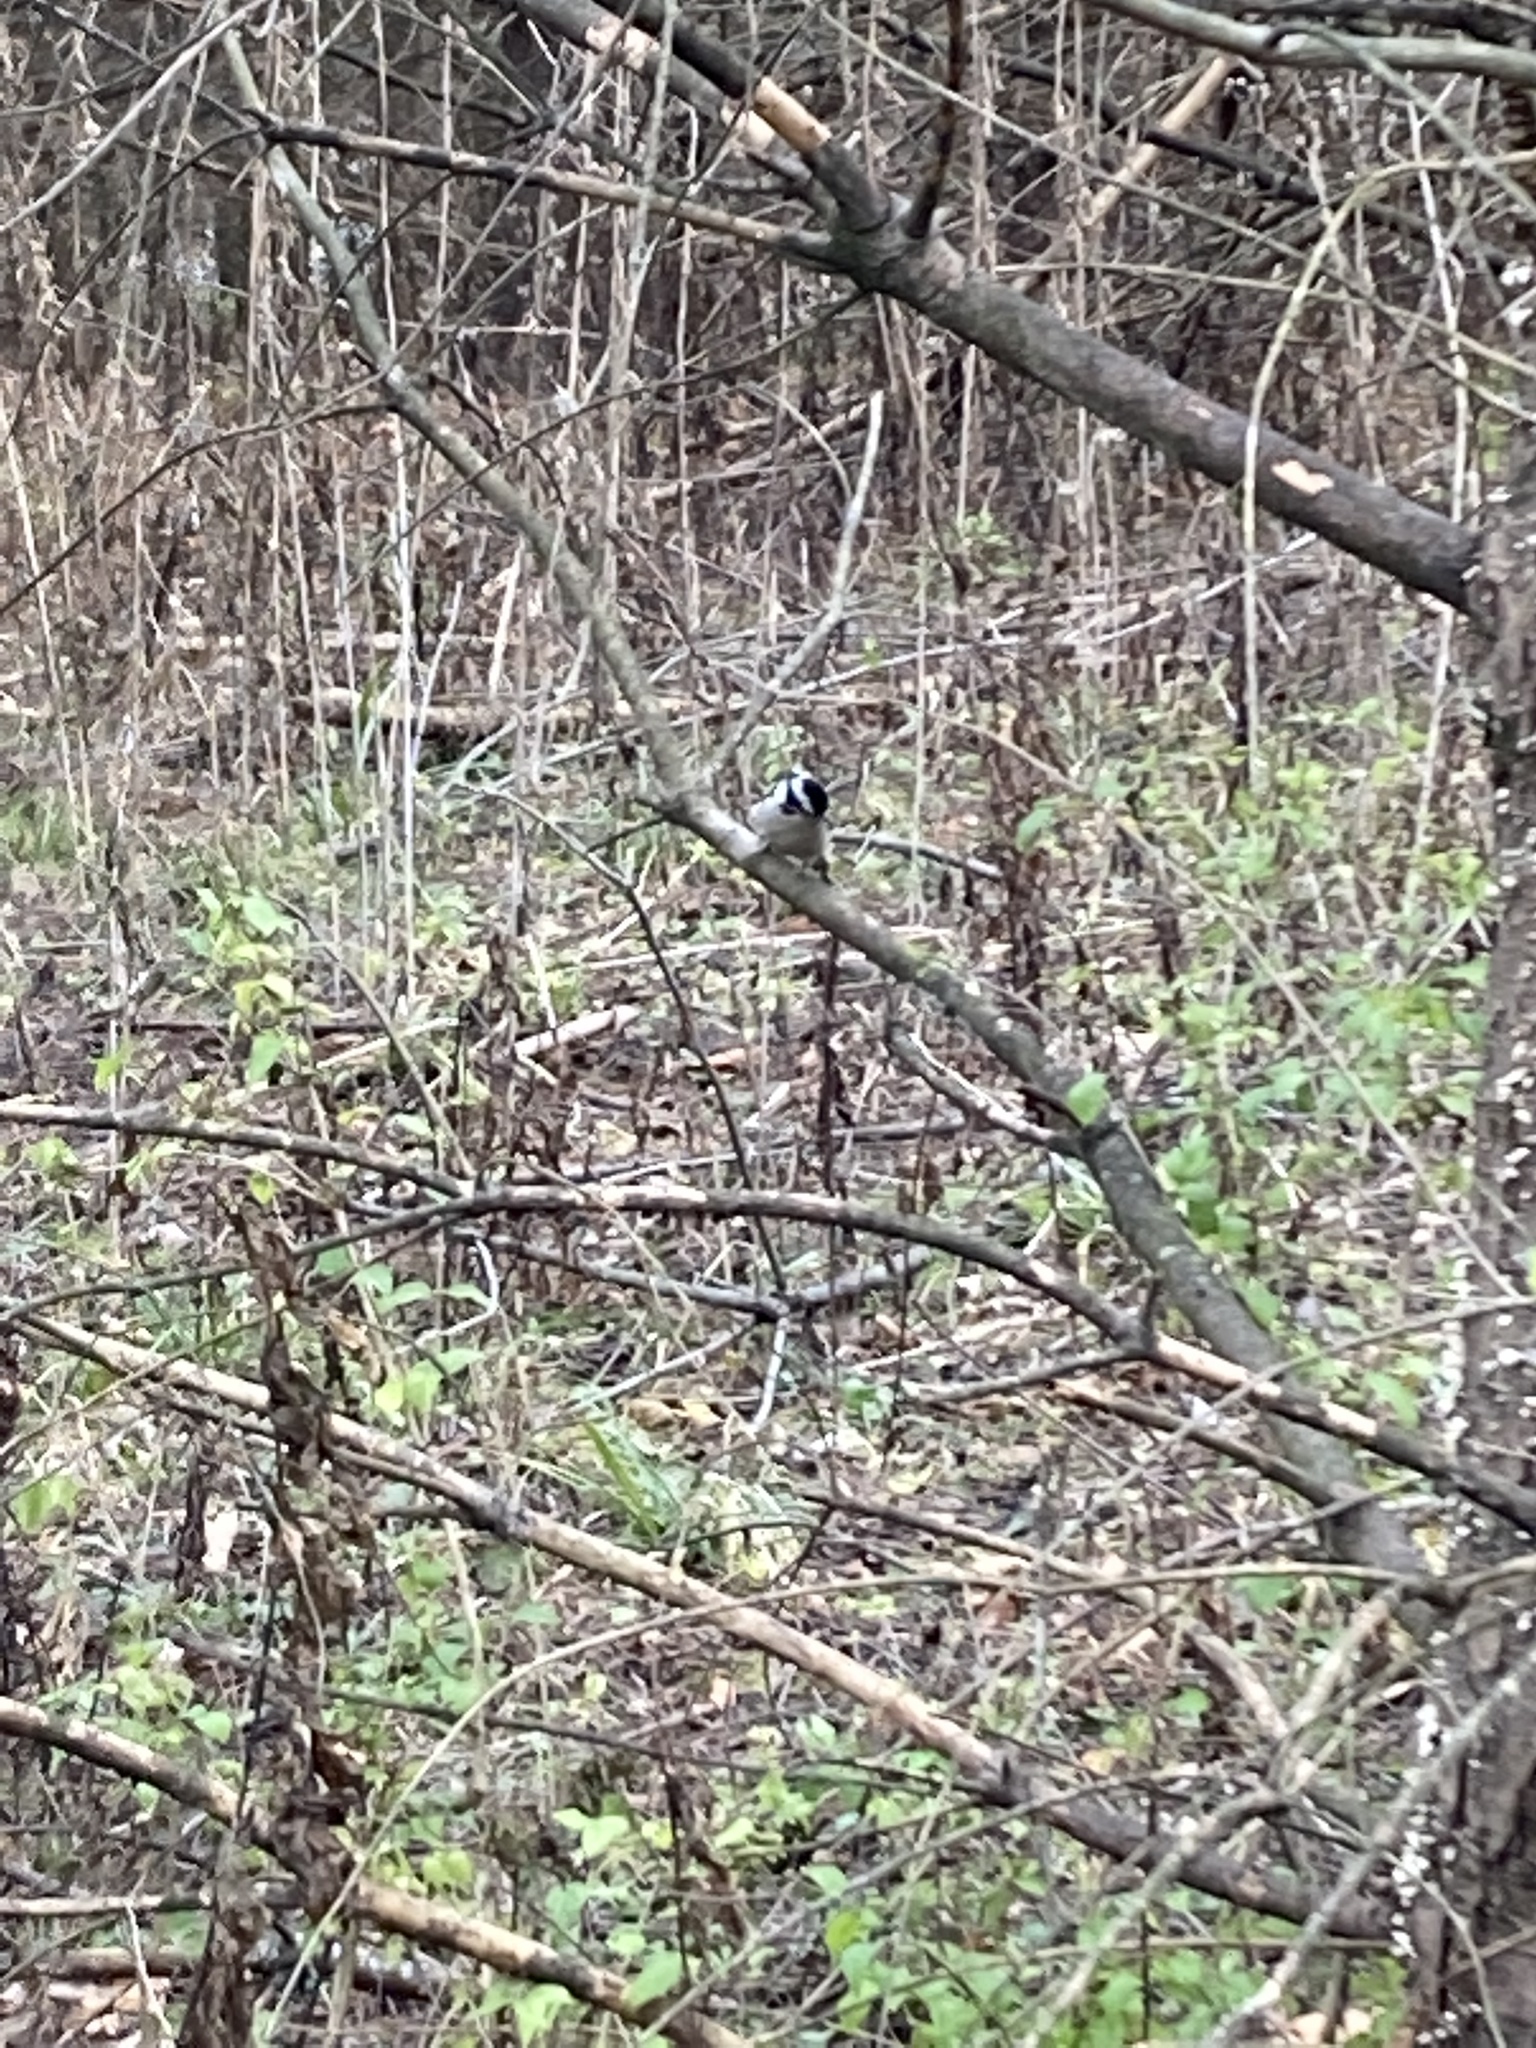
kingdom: Animalia
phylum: Chordata
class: Aves
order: Passeriformes
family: Paridae
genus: Poecile
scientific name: Poecile carolinensis
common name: Carolina chickadee
